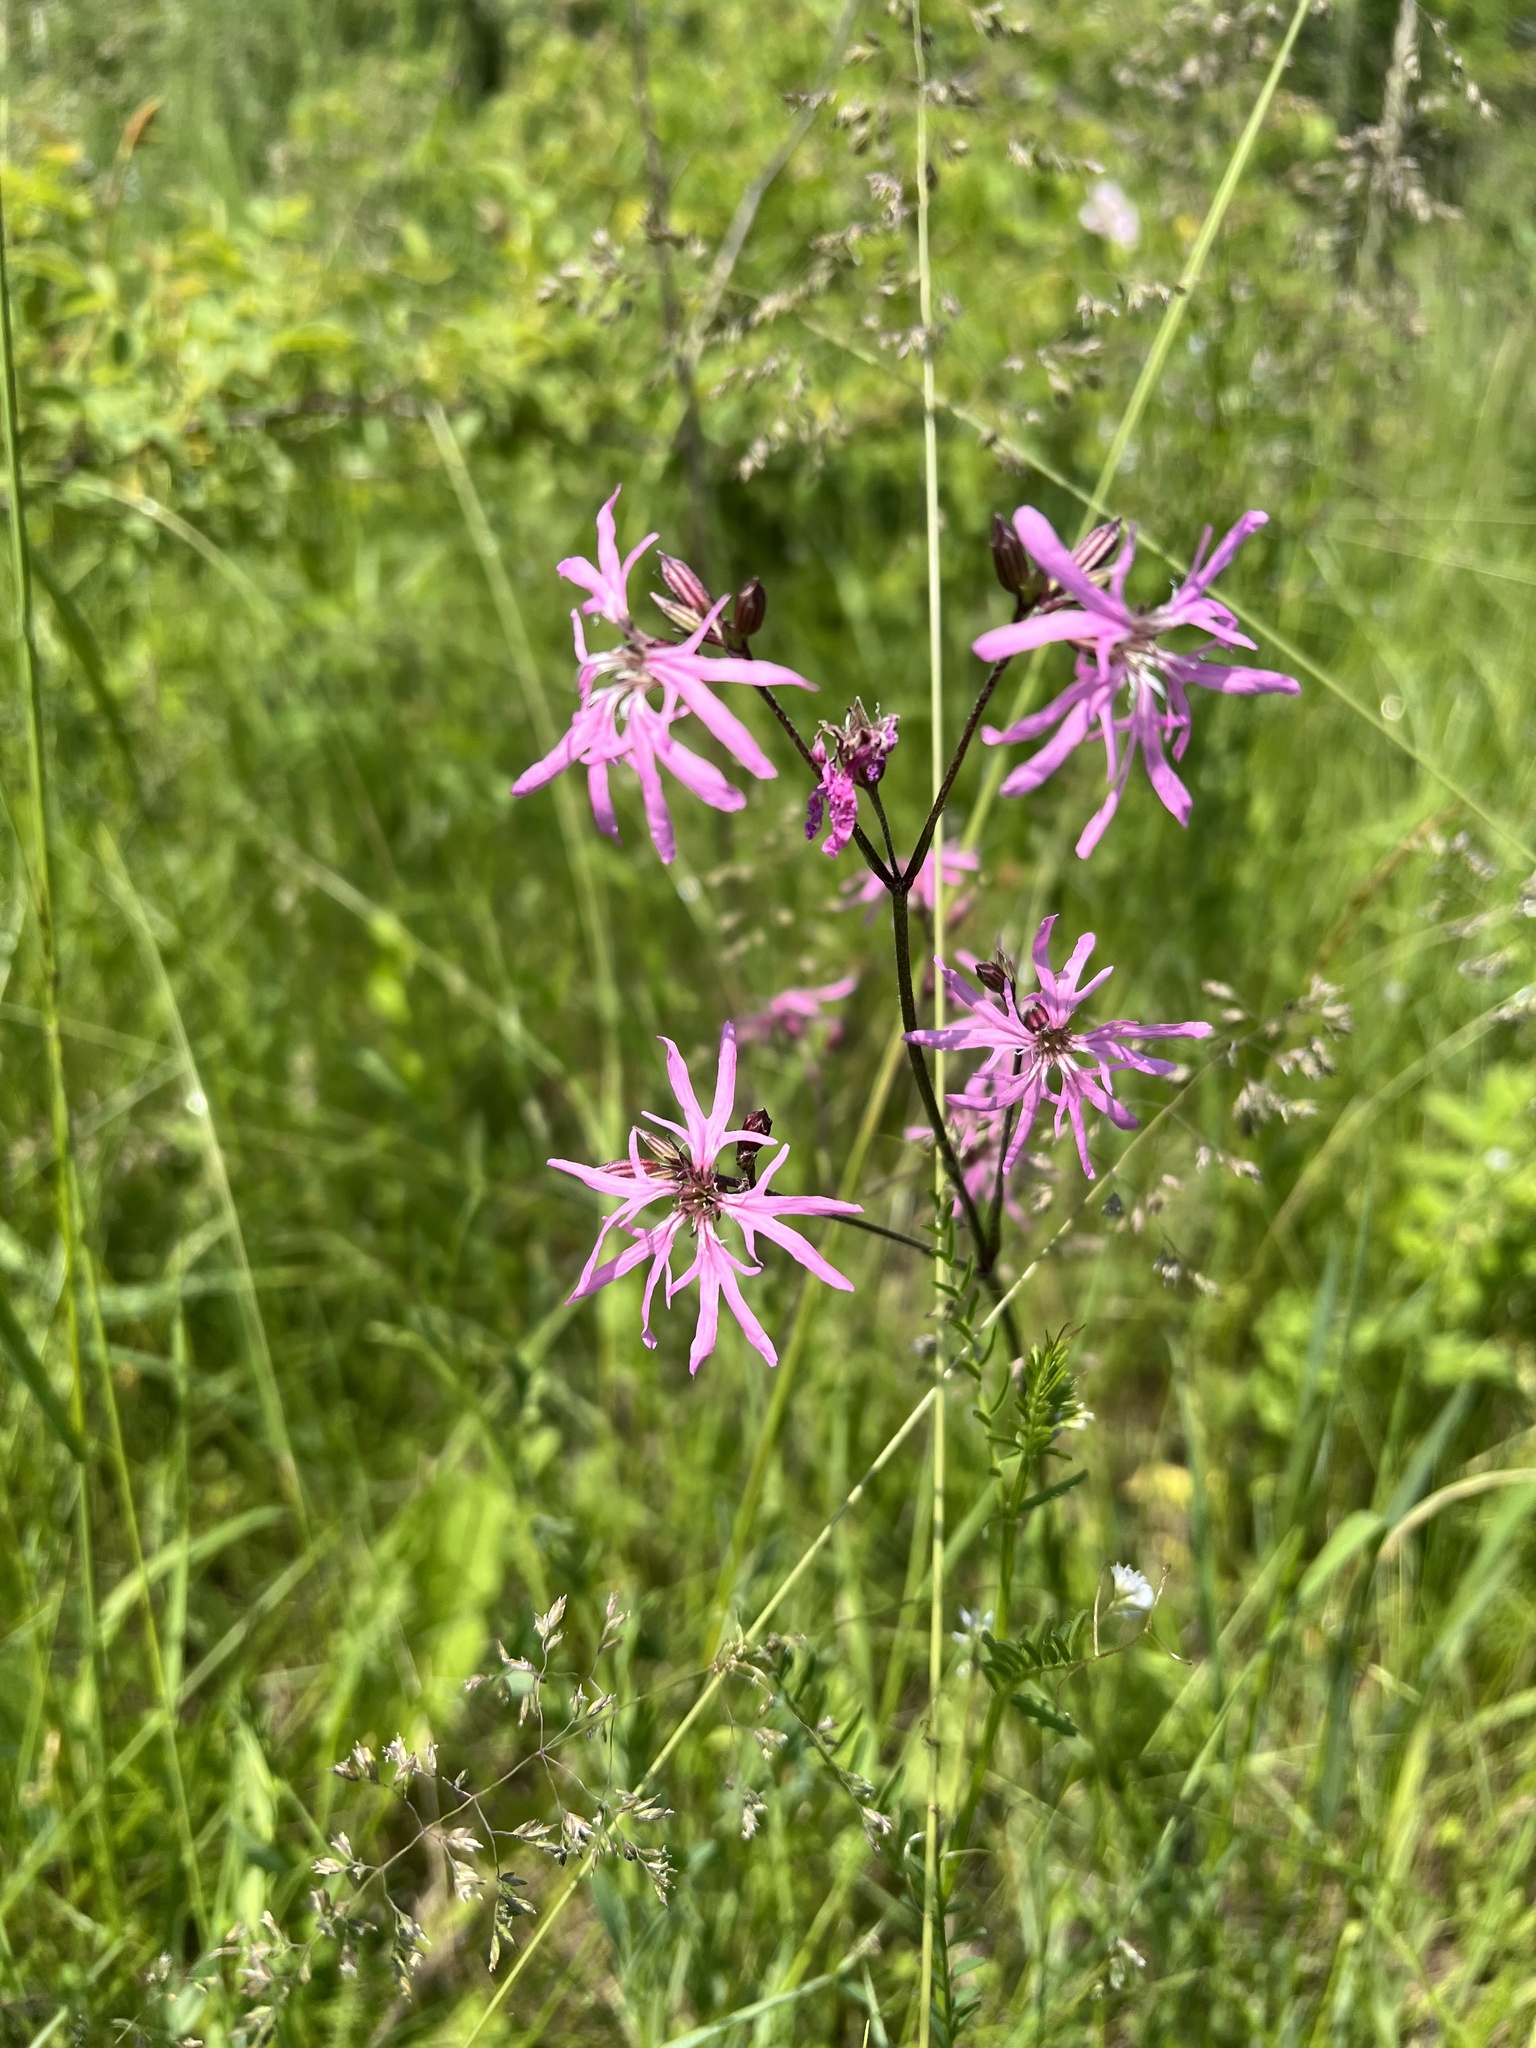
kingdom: Plantae
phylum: Tracheophyta
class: Magnoliopsida
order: Caryophyllales
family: Caryophyllaceae
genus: Silene
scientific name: Silene flos-cuculi
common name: Ragged-robin
